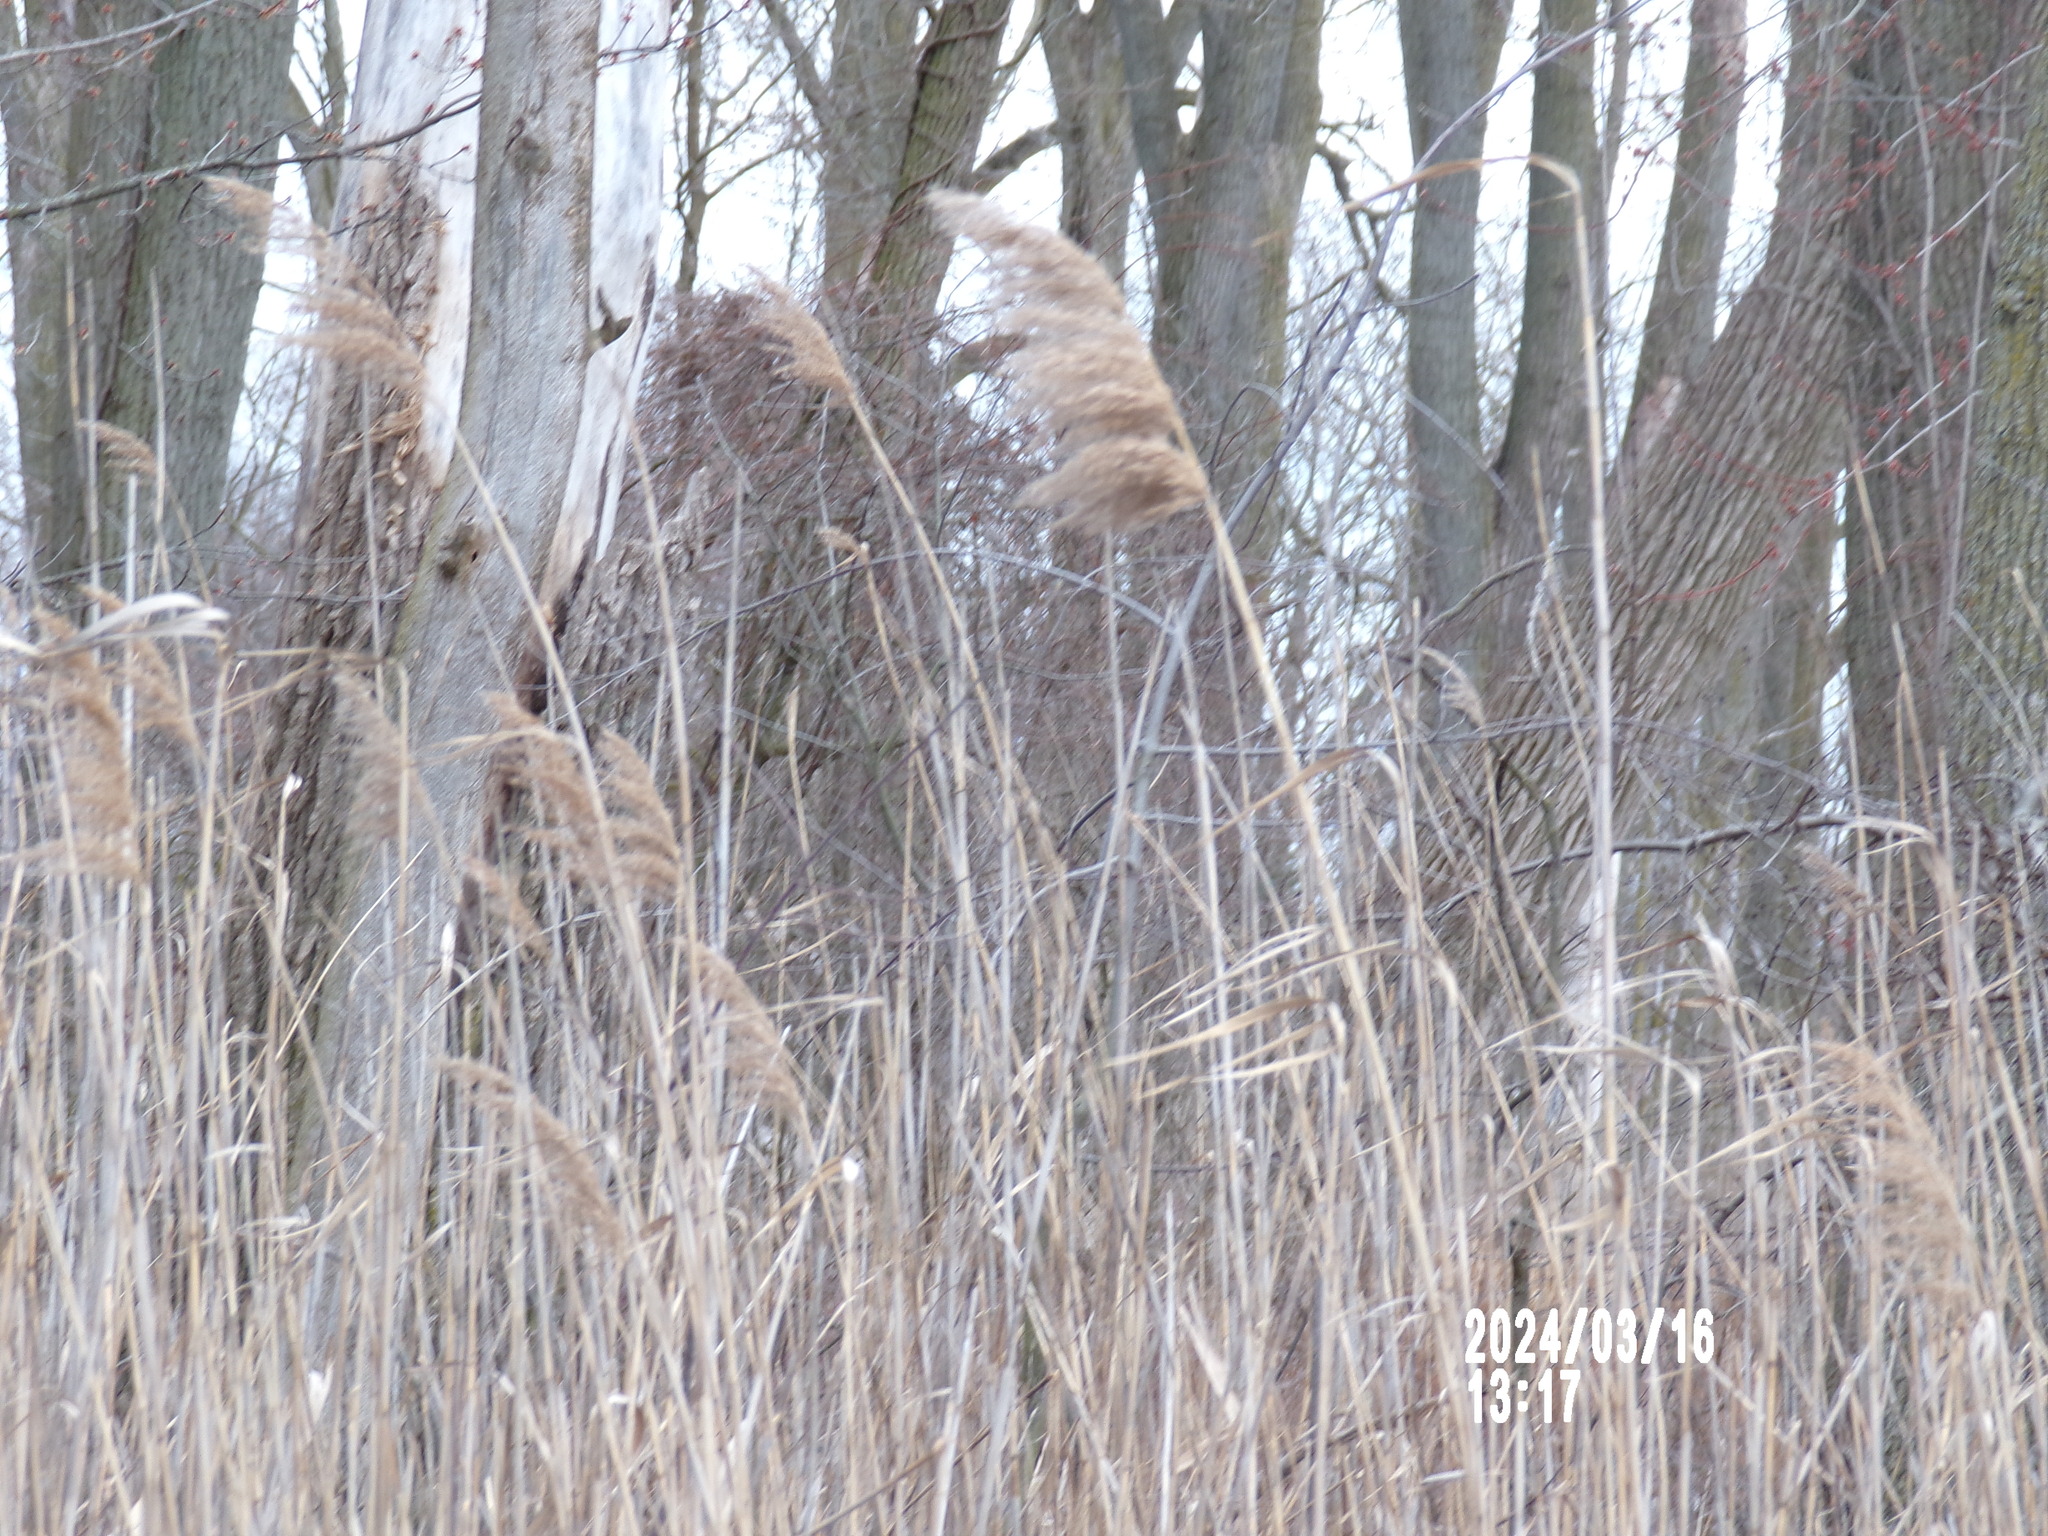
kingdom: Plantae
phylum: Tracheophyta
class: Liliopsida
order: Poales
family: Poaceae
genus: Phragmites
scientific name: Phragmites australis
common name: Common reed
